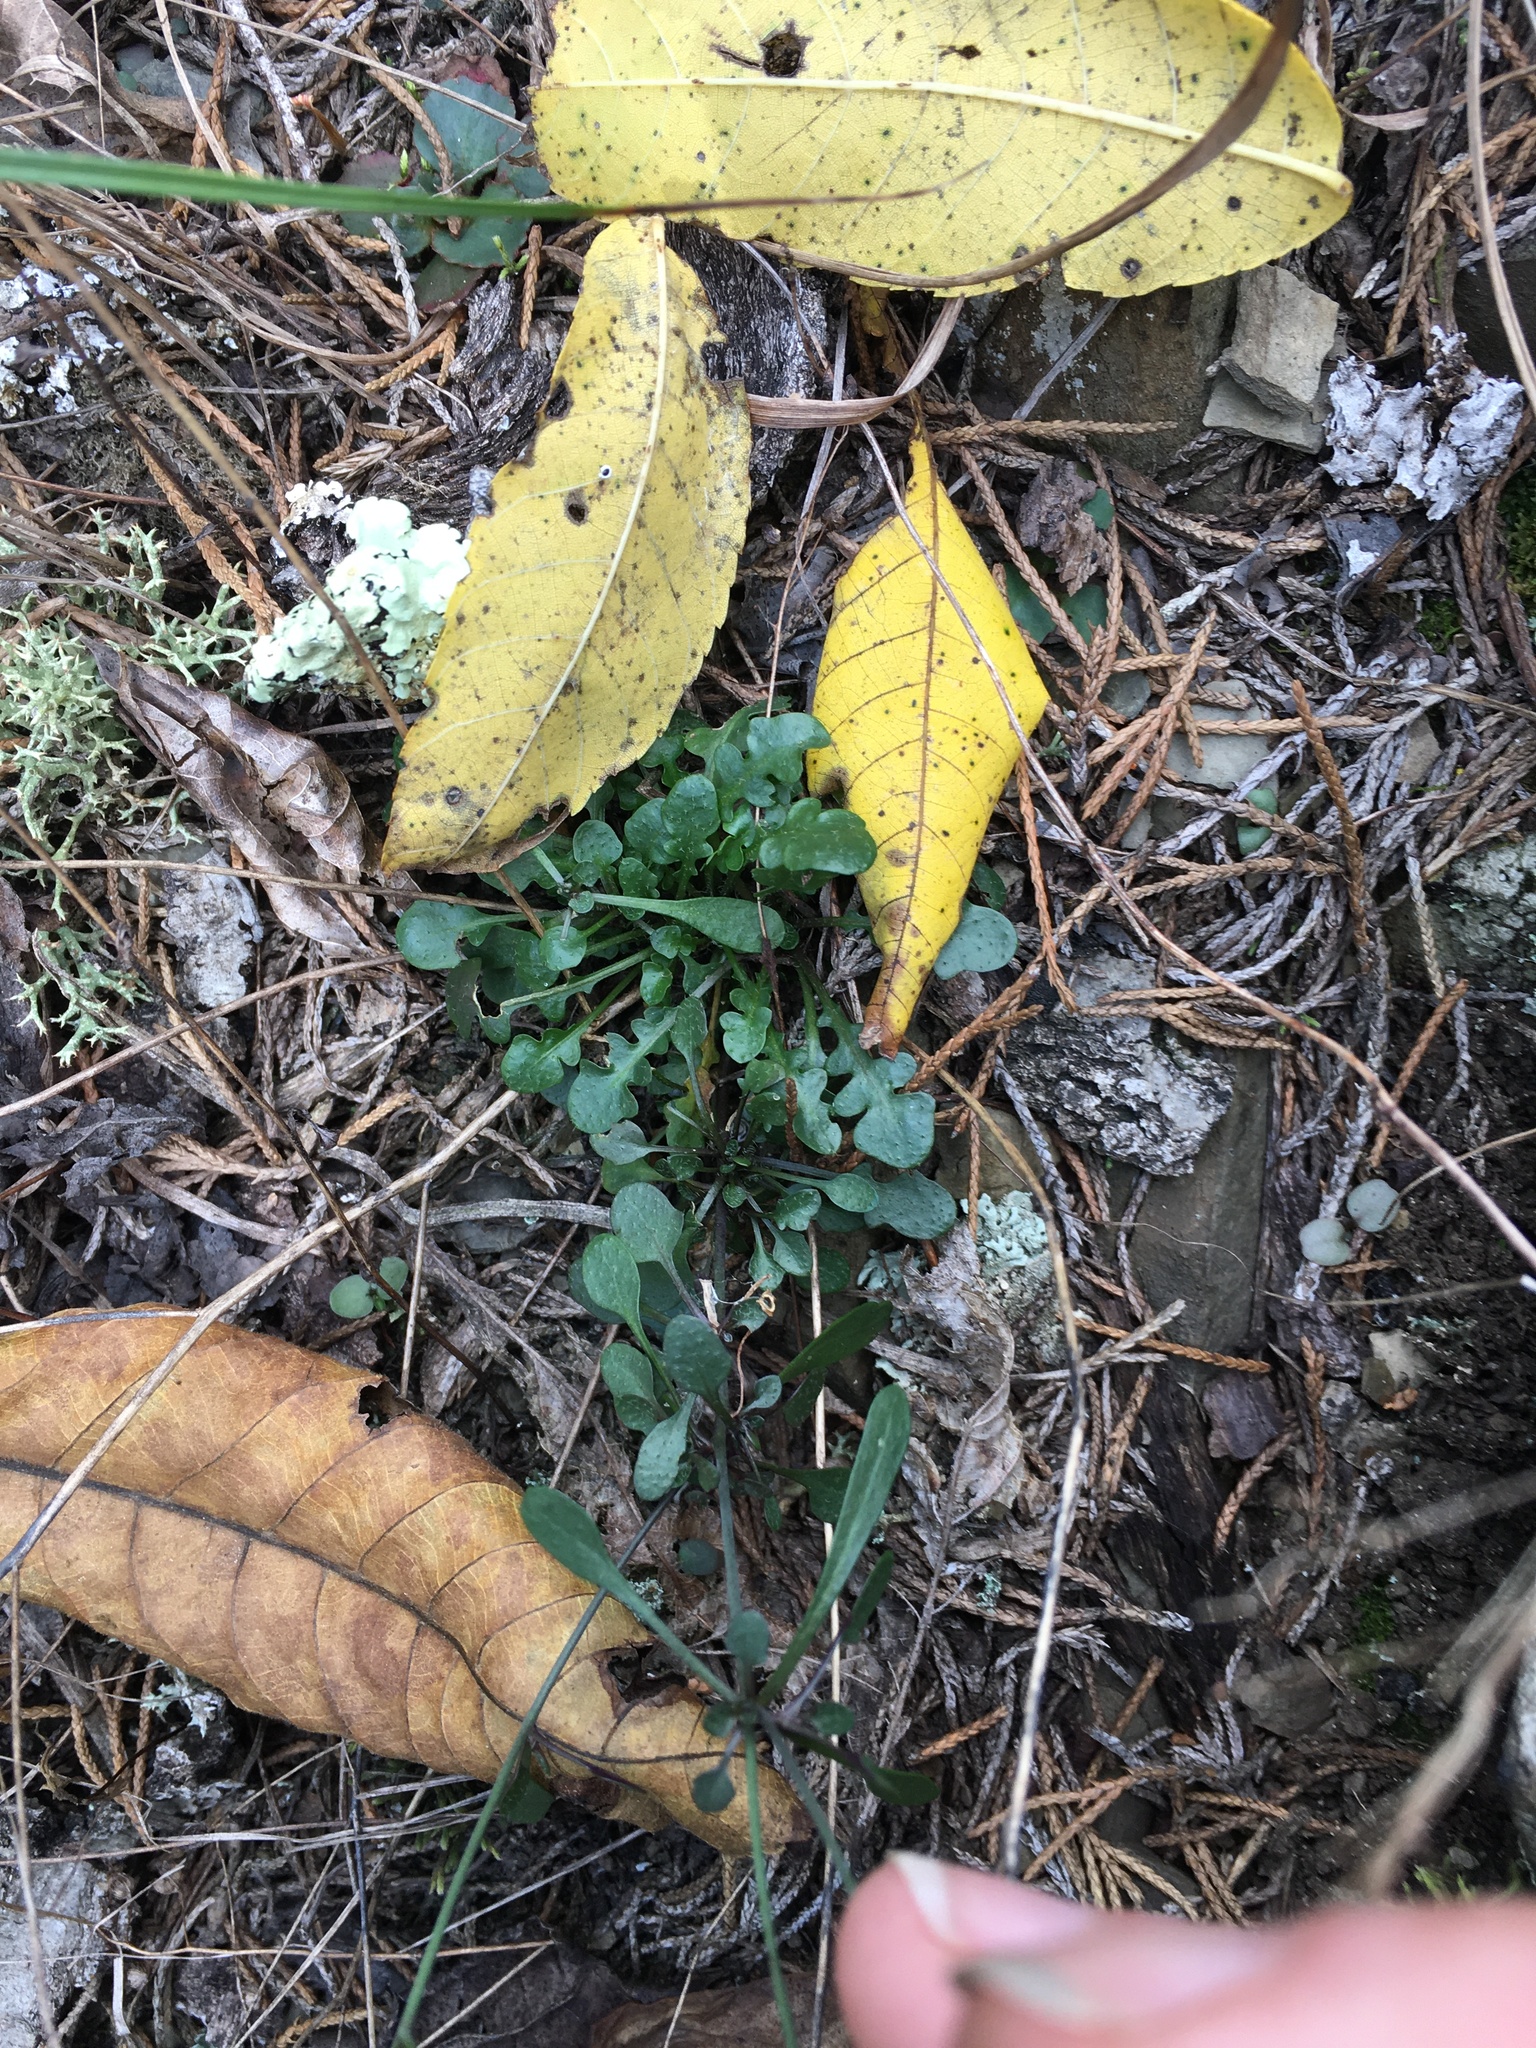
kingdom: Plantae
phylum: Tracheophyta
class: Magnoliopsida
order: Brassicales
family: Brassicaceae
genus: Arabidopsis
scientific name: Arabidopsis lyrata
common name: Lyrate rockcress
